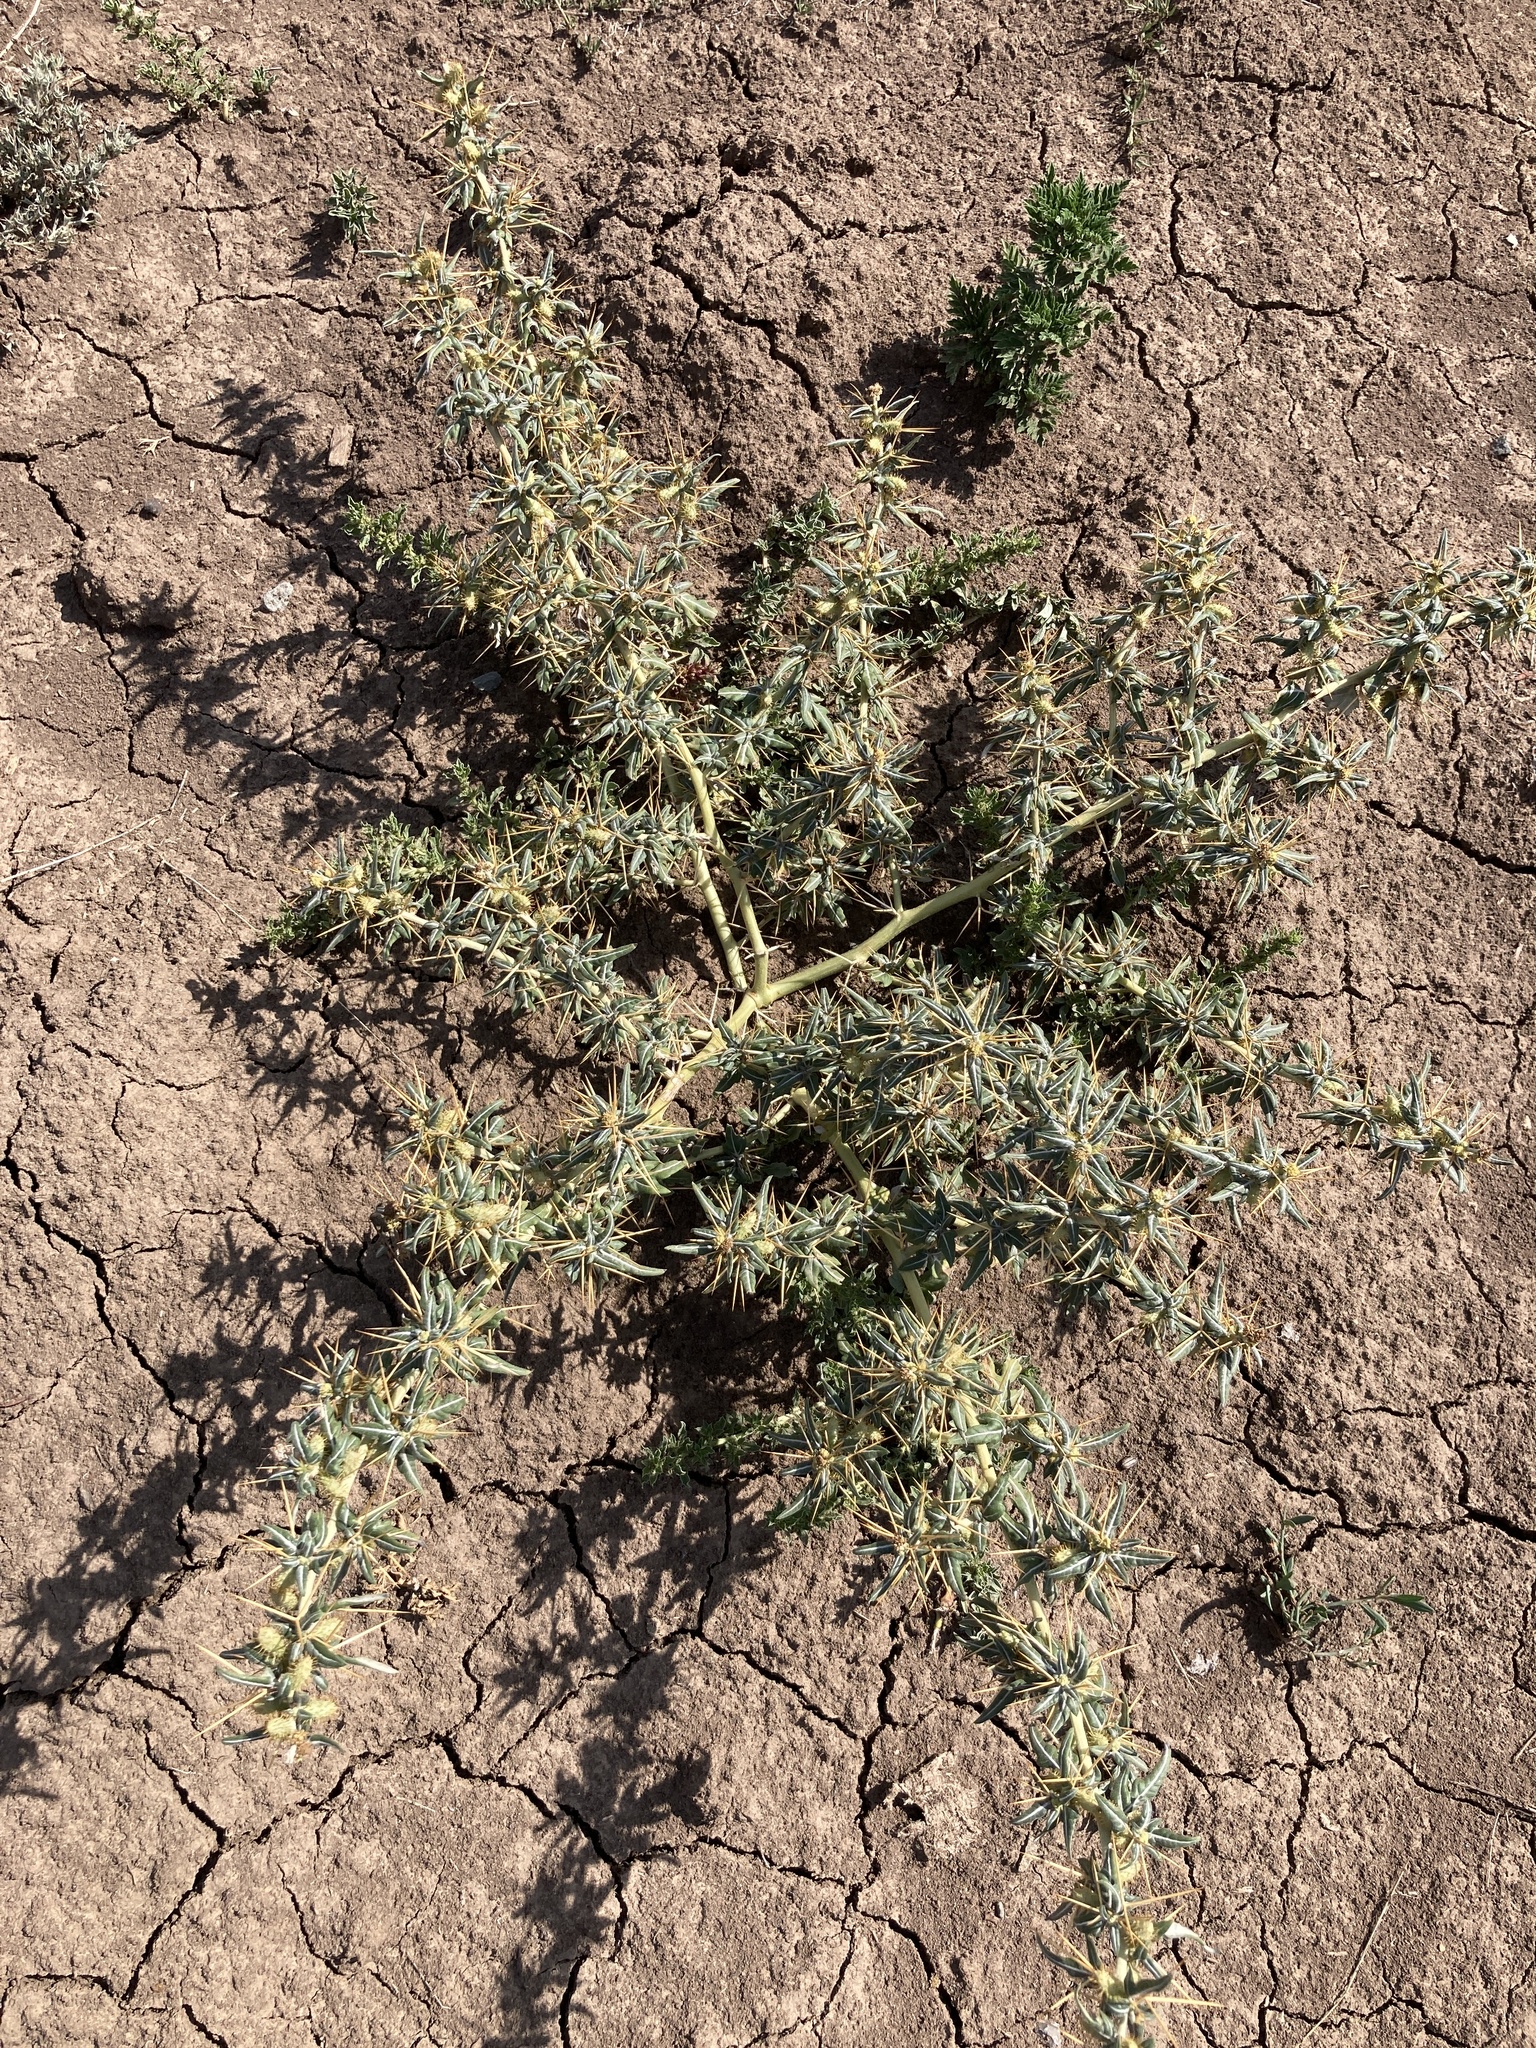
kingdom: Plantae
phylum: Tracheophyta
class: Magnoliopsida
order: Asterales
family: Asteraceae
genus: Xanthium
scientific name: Xanthium spinosum
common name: Spiny cocklebur
